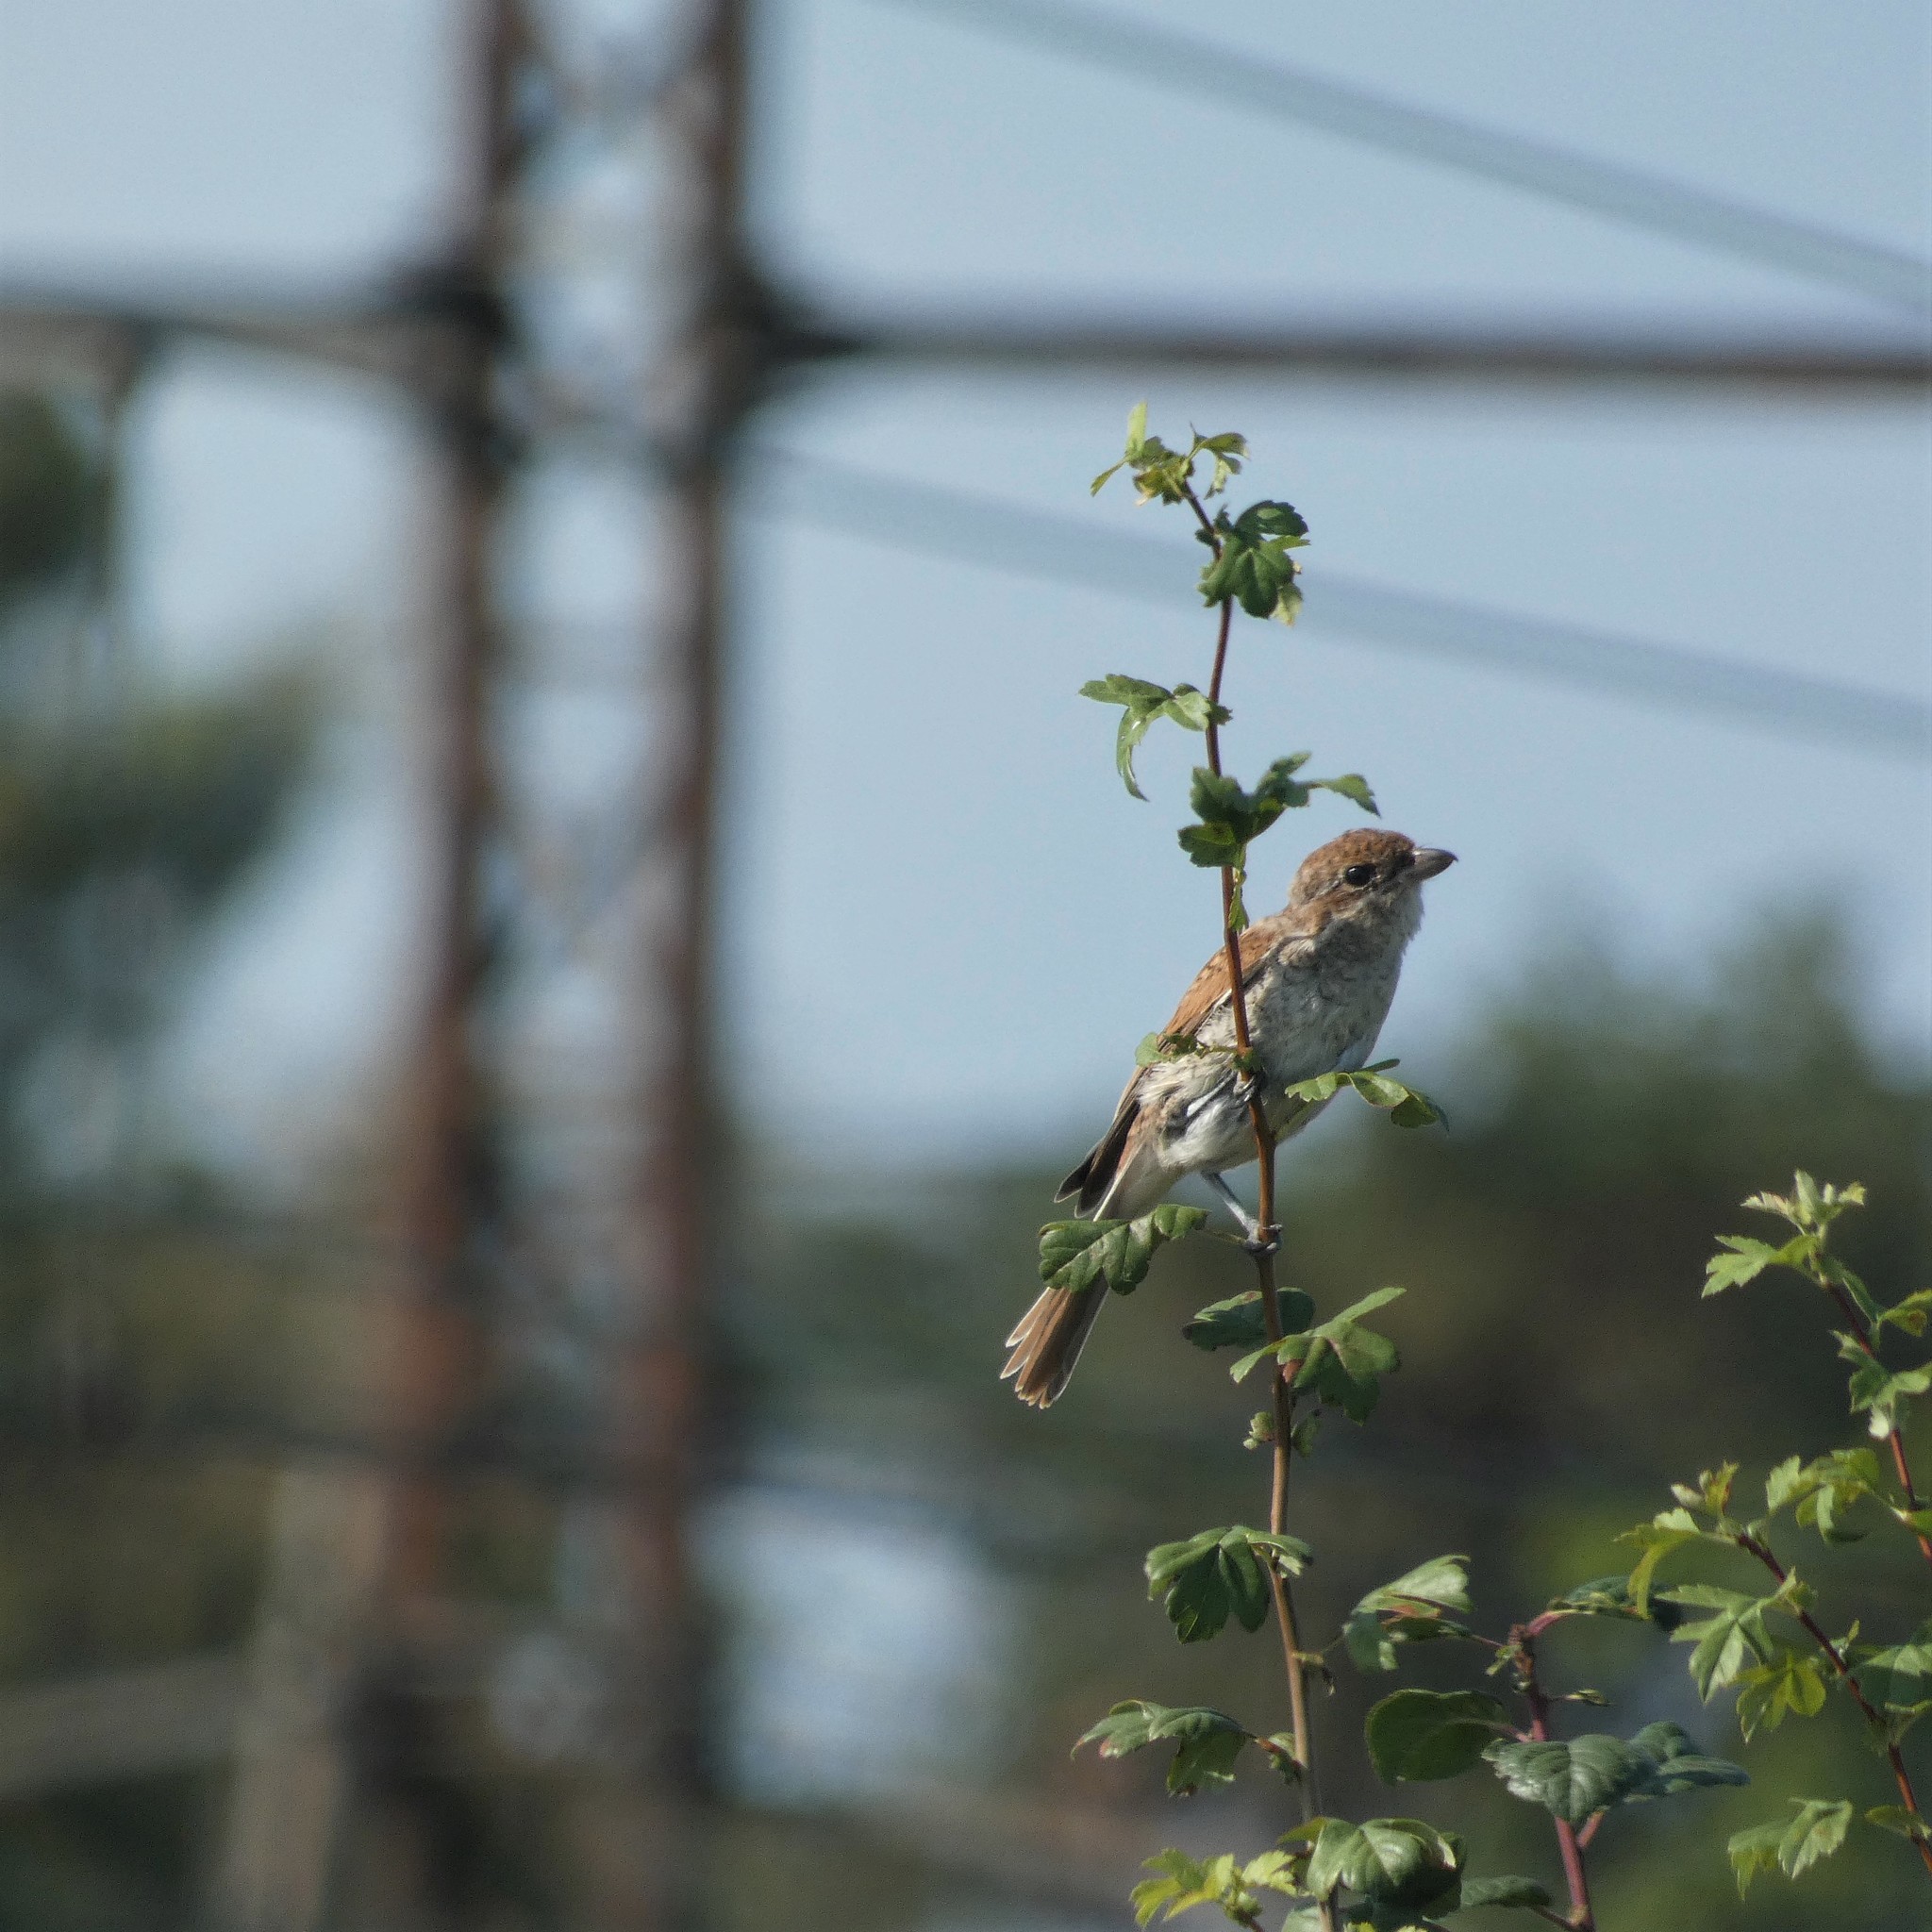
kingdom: Animalia
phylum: Chordata
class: Aves
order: Passeriformes
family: Laniidae
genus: Lanius
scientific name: Lanius collurio
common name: Red-backed shrike
